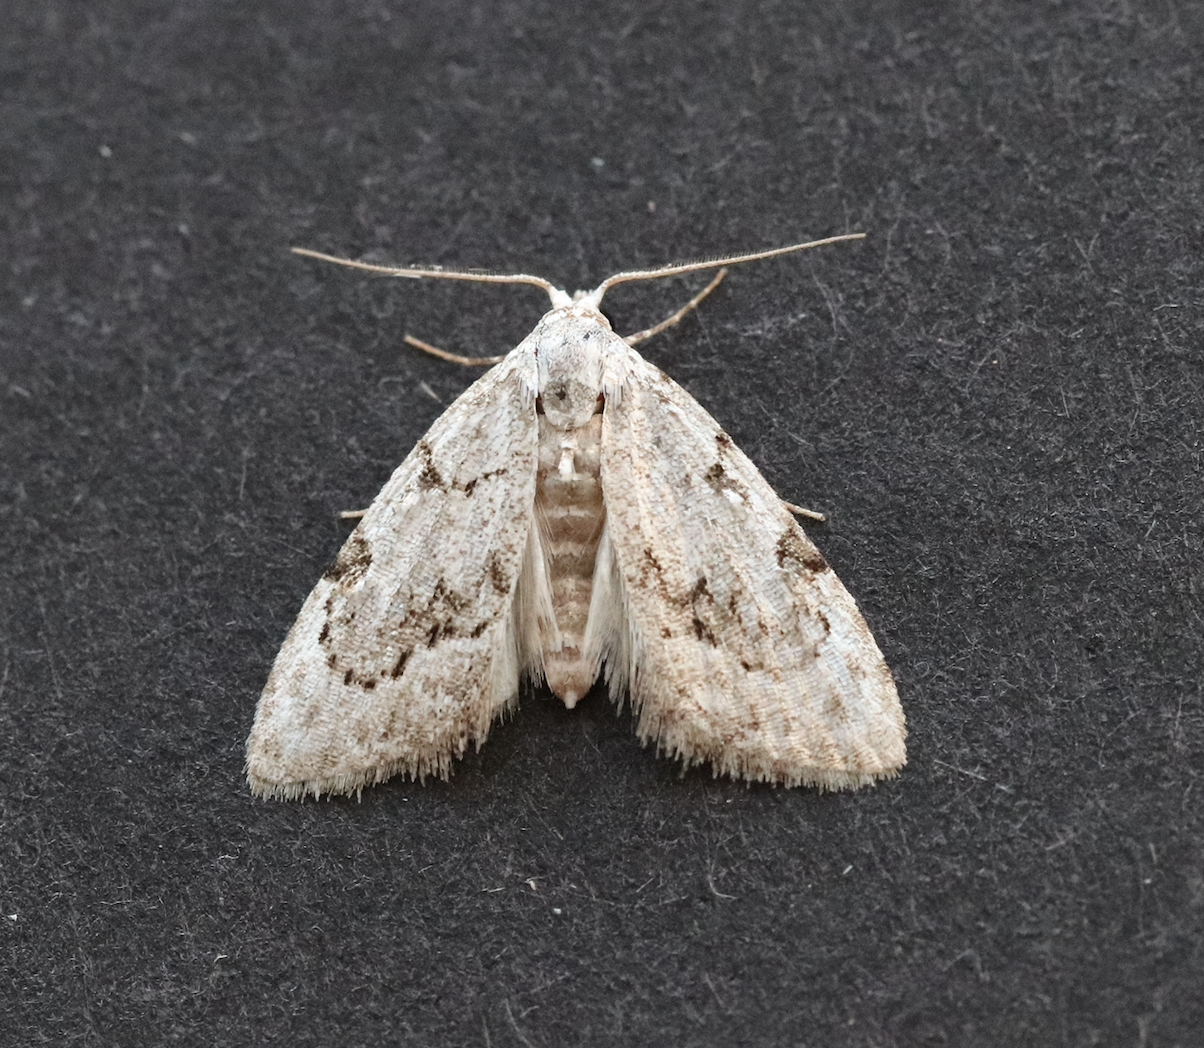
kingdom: Animalia
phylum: Arthropoda
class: Insecta
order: Lepidoptera
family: Nolidae
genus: Nola
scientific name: Nola confusalis
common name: Least black arches
